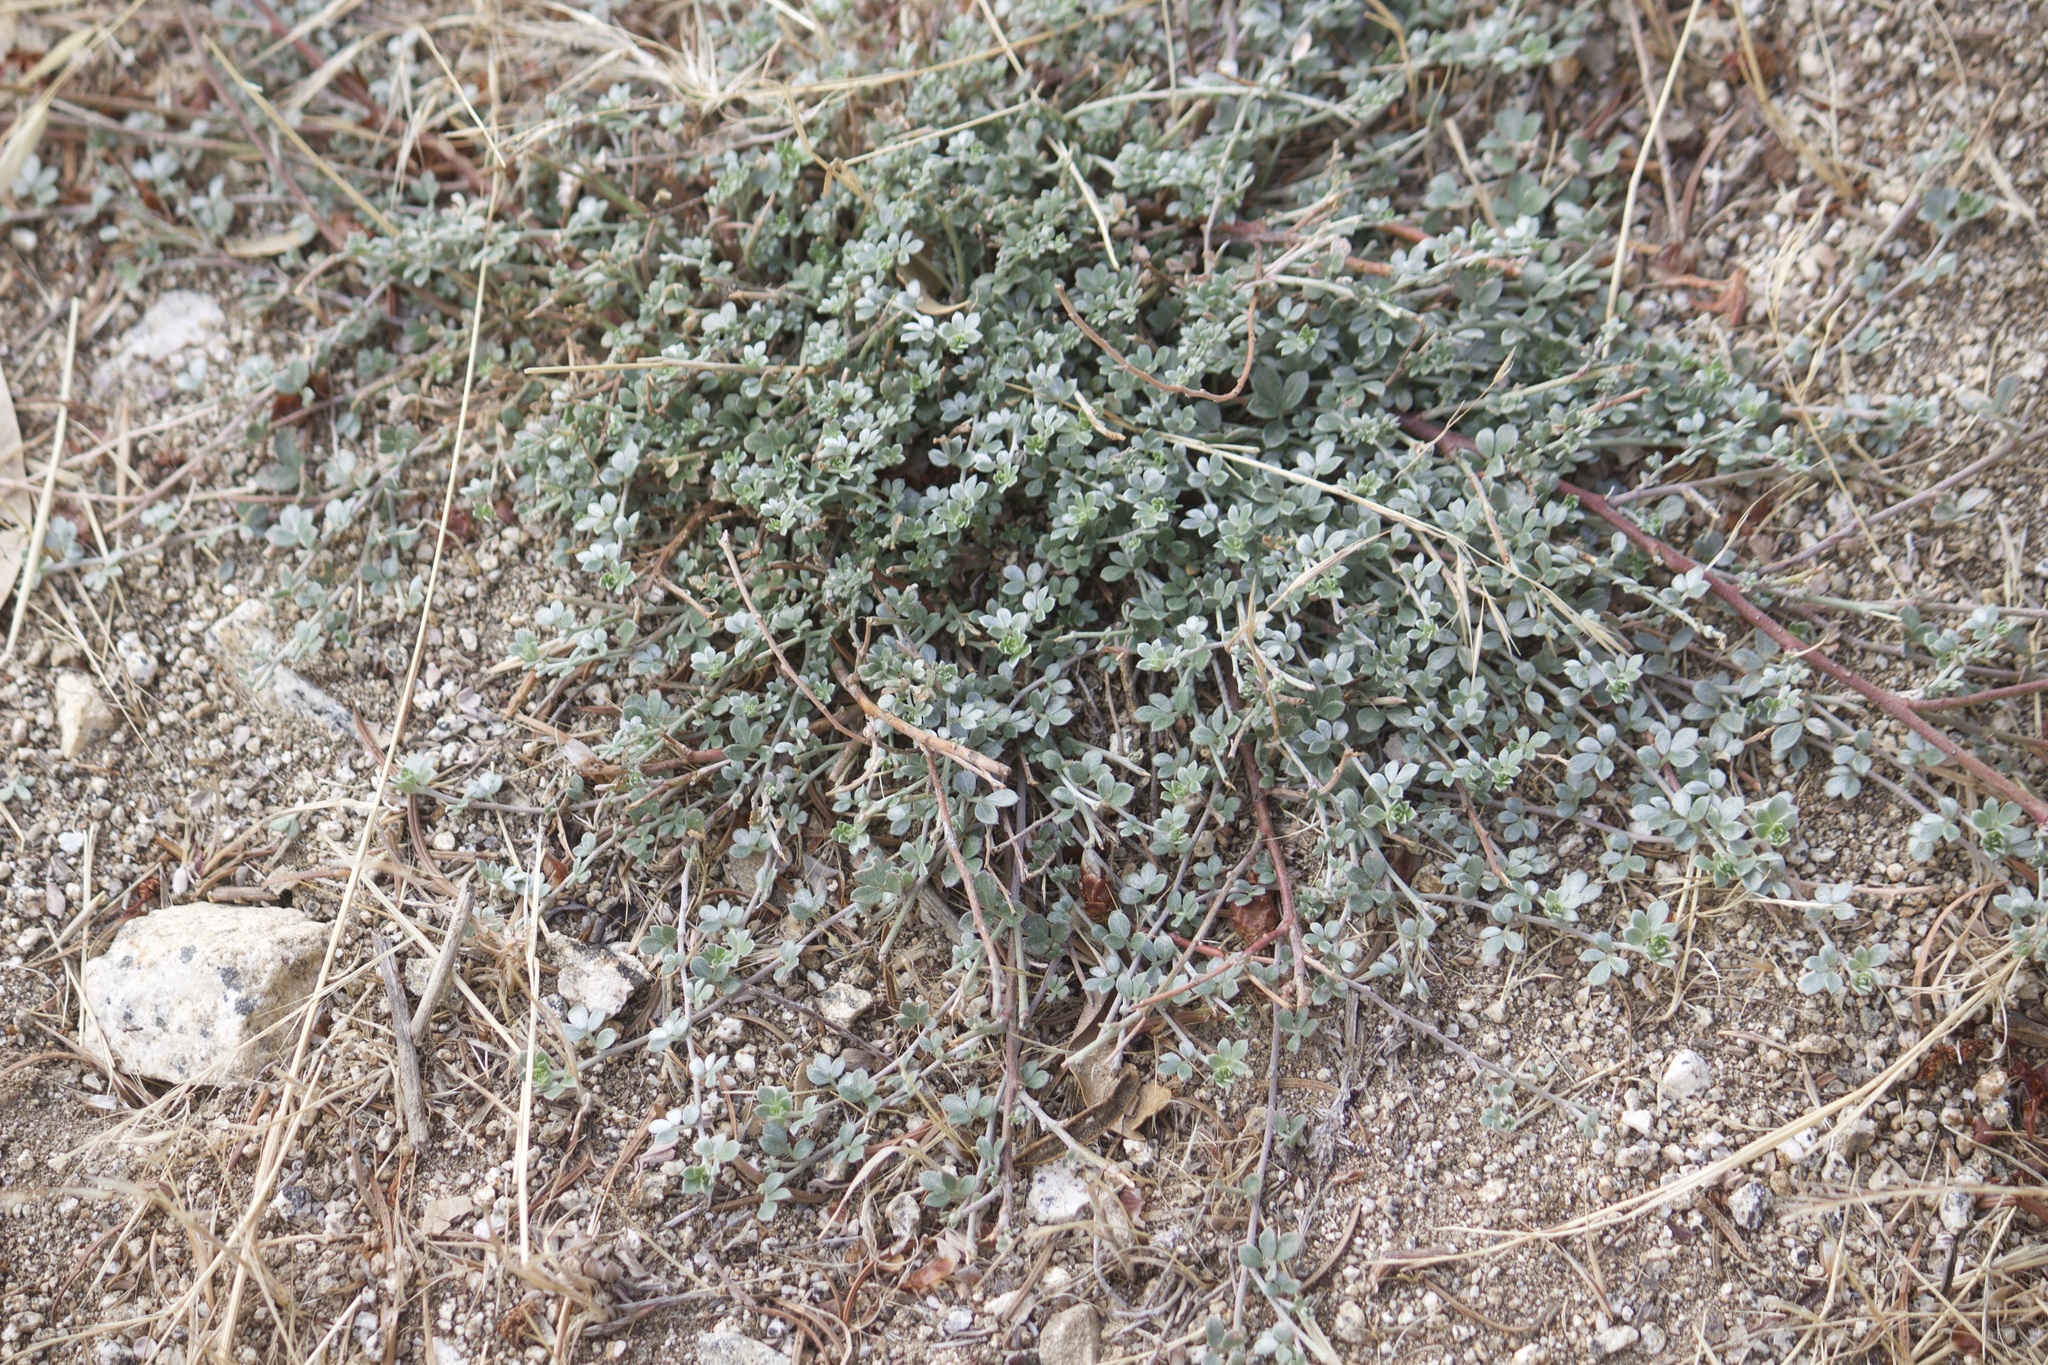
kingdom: Plantae
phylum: Tracheophyta
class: Magnoliopsida
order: Fabales
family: Fabaceae
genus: Acmispon
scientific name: Acmispon argophyllus
